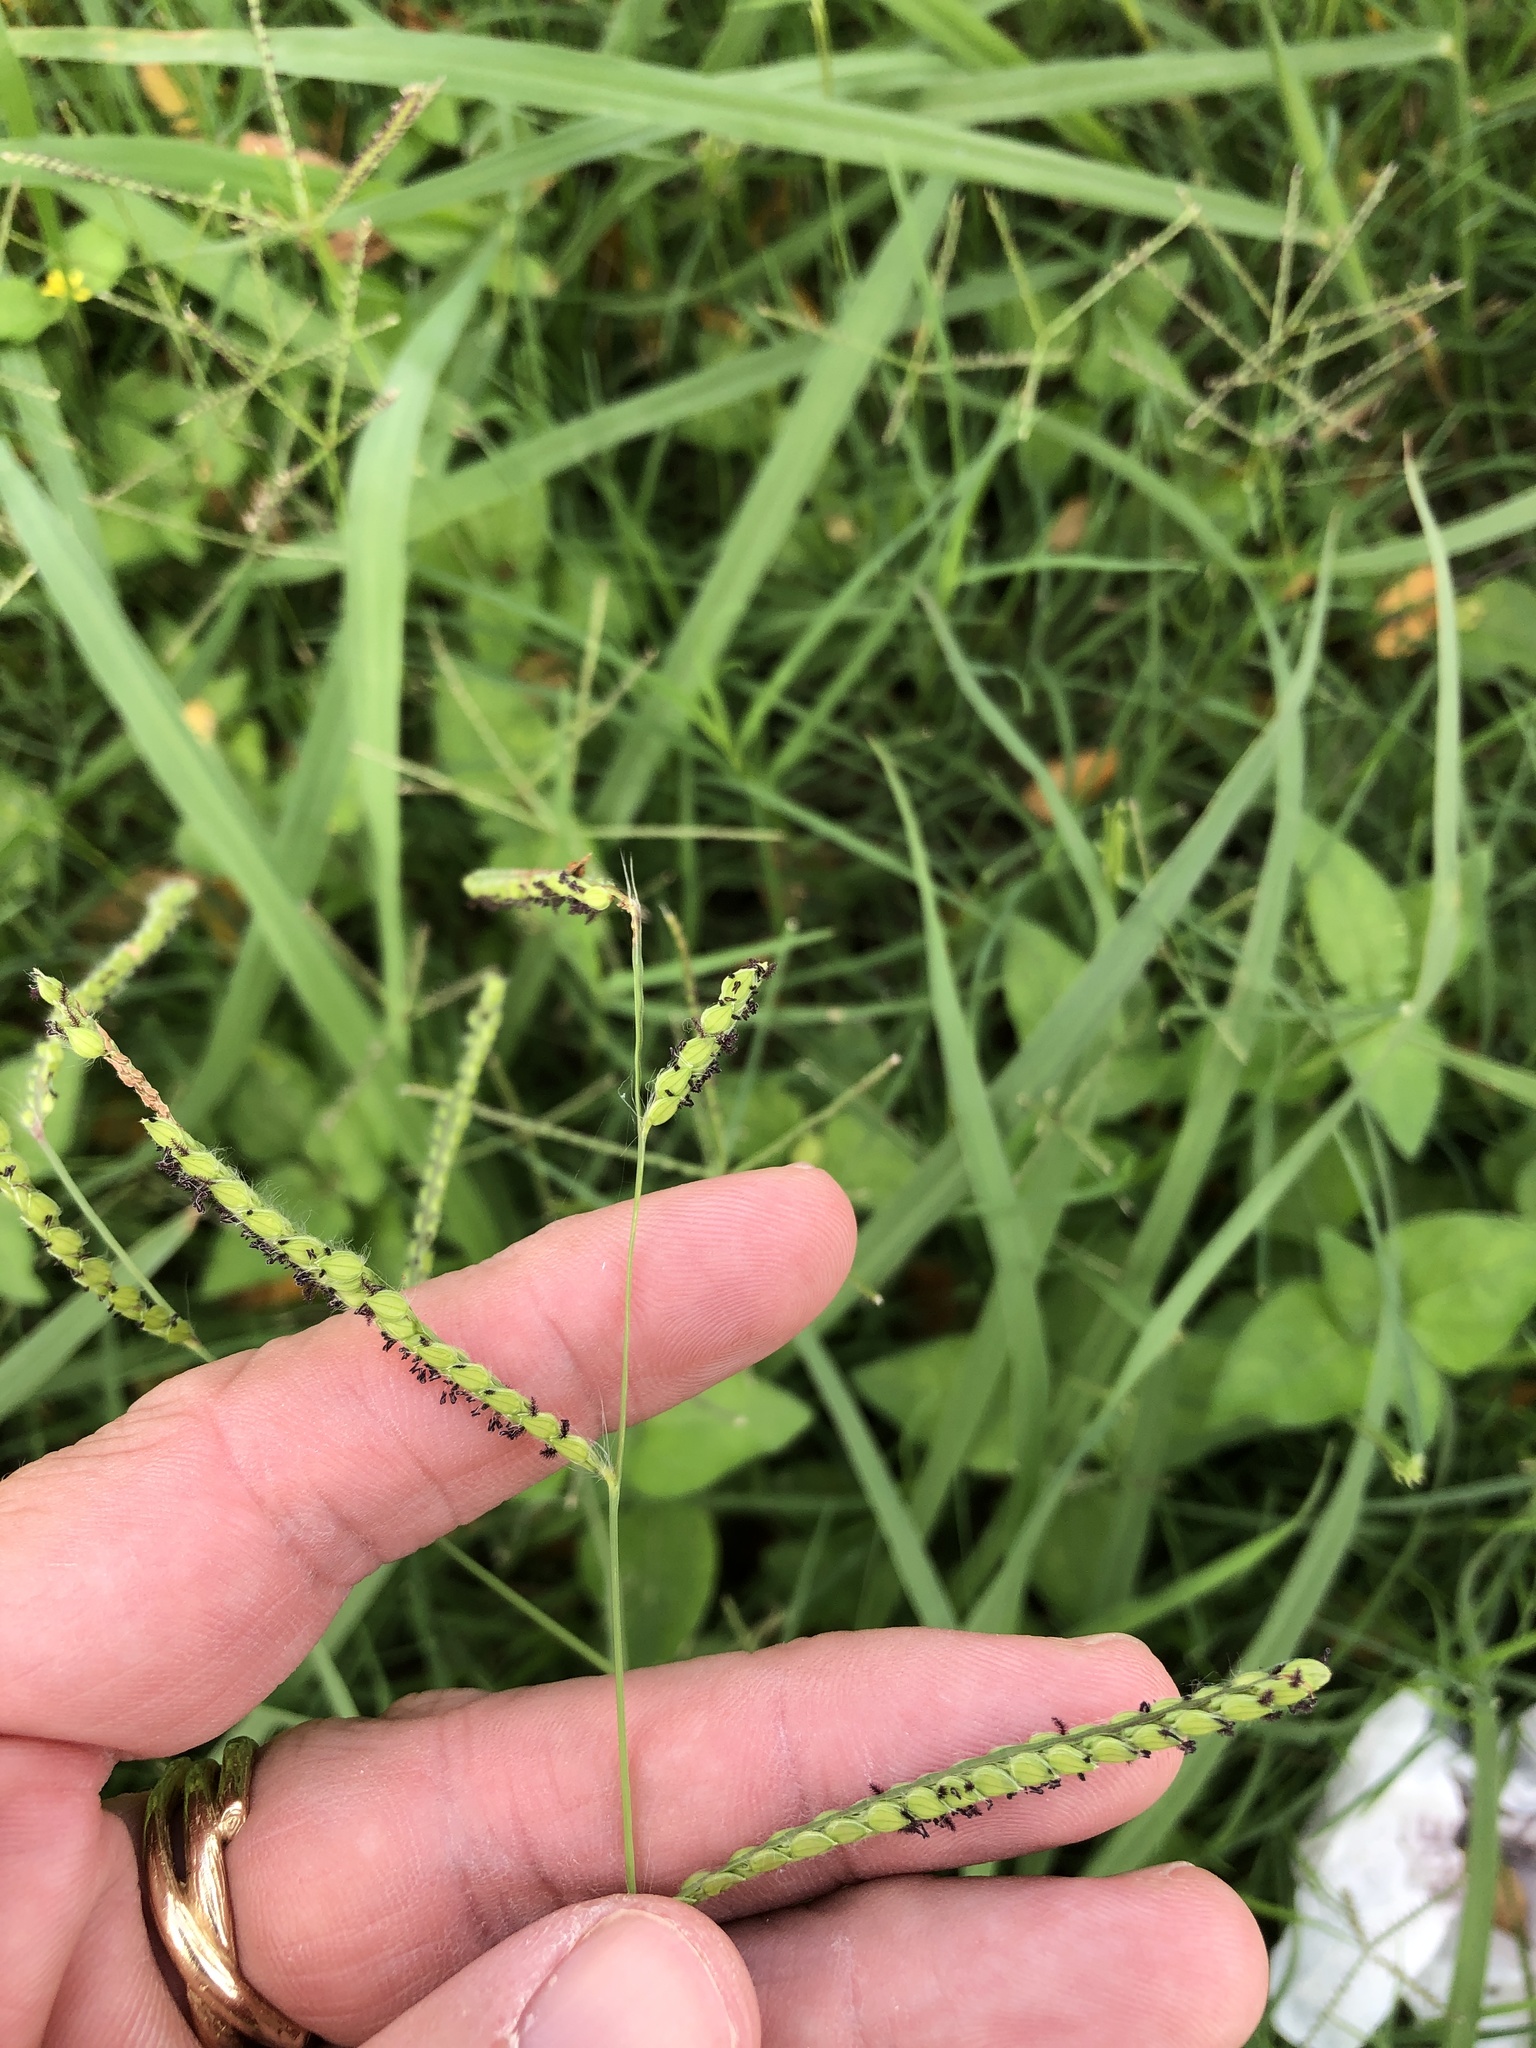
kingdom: Plantae
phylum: Tracheophyta
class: Liliopsida
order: Poales
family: Poaceae
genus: Paspalum
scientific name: Paspalum dilatatum
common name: Dallisgrass
